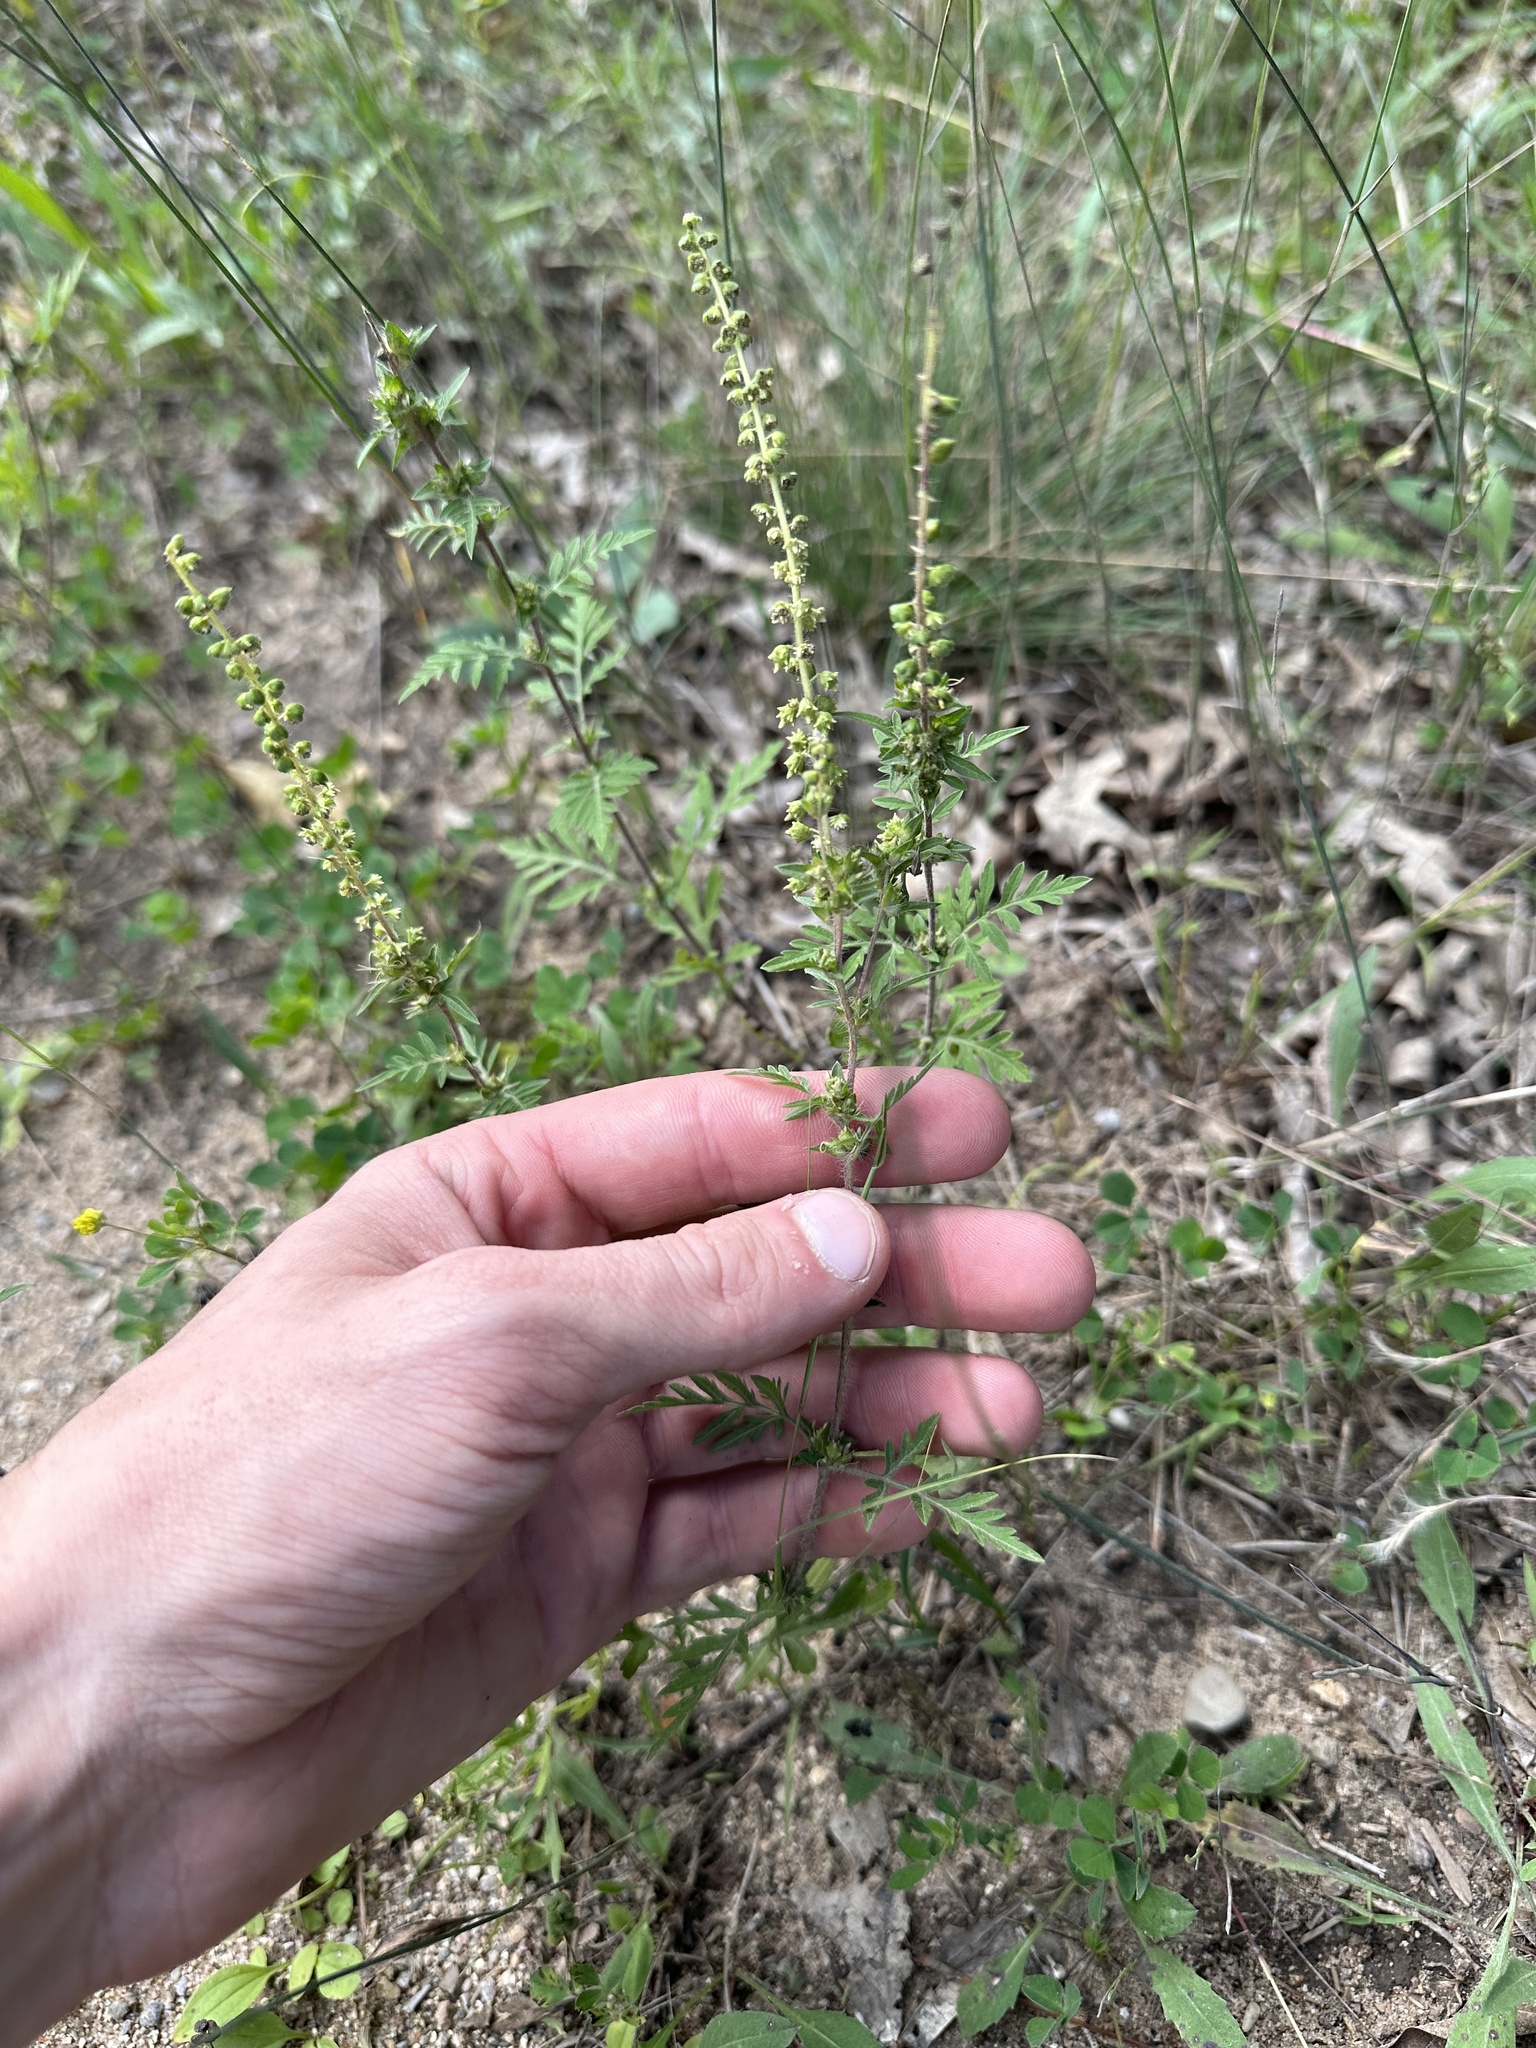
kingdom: Plantae
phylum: Tracheophyta
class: Magnoliopsida
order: Asterales
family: Asteraceae
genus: Ambrosia
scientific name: Ambrosia artemisiifolia
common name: Annual ragweed
